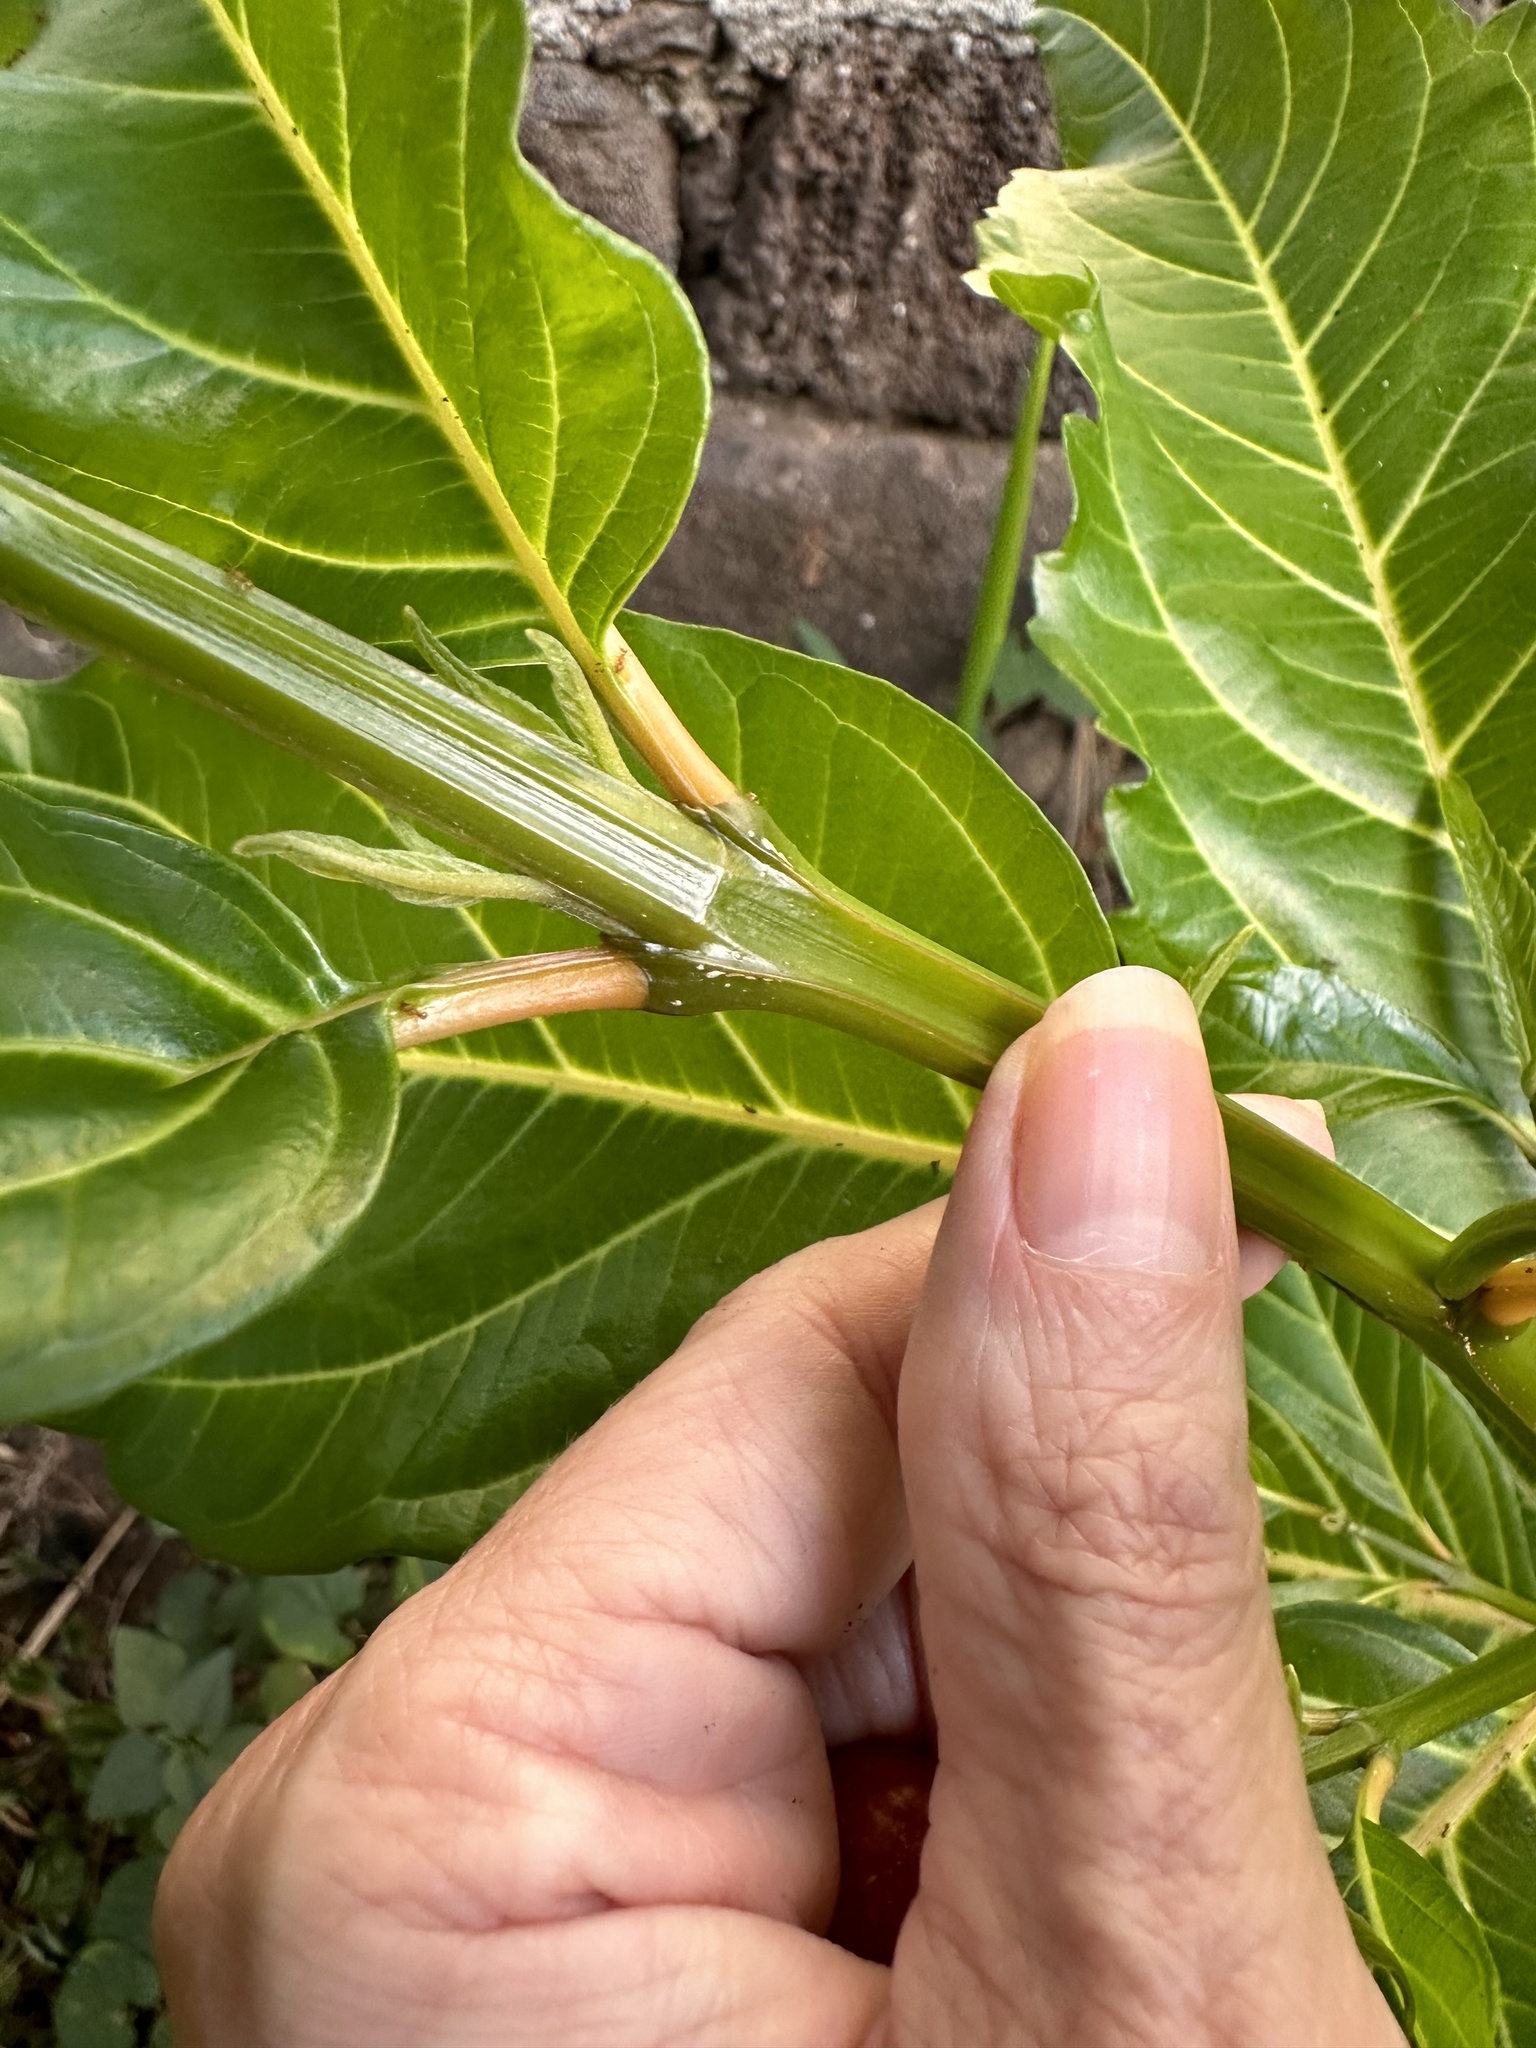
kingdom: Plantae
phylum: Tracheophyta
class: Magnoliopsida
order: Lamiales
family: Verbenaceae
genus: Citharexylum
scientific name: Citharexylum spinosum
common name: Fiddlewood
